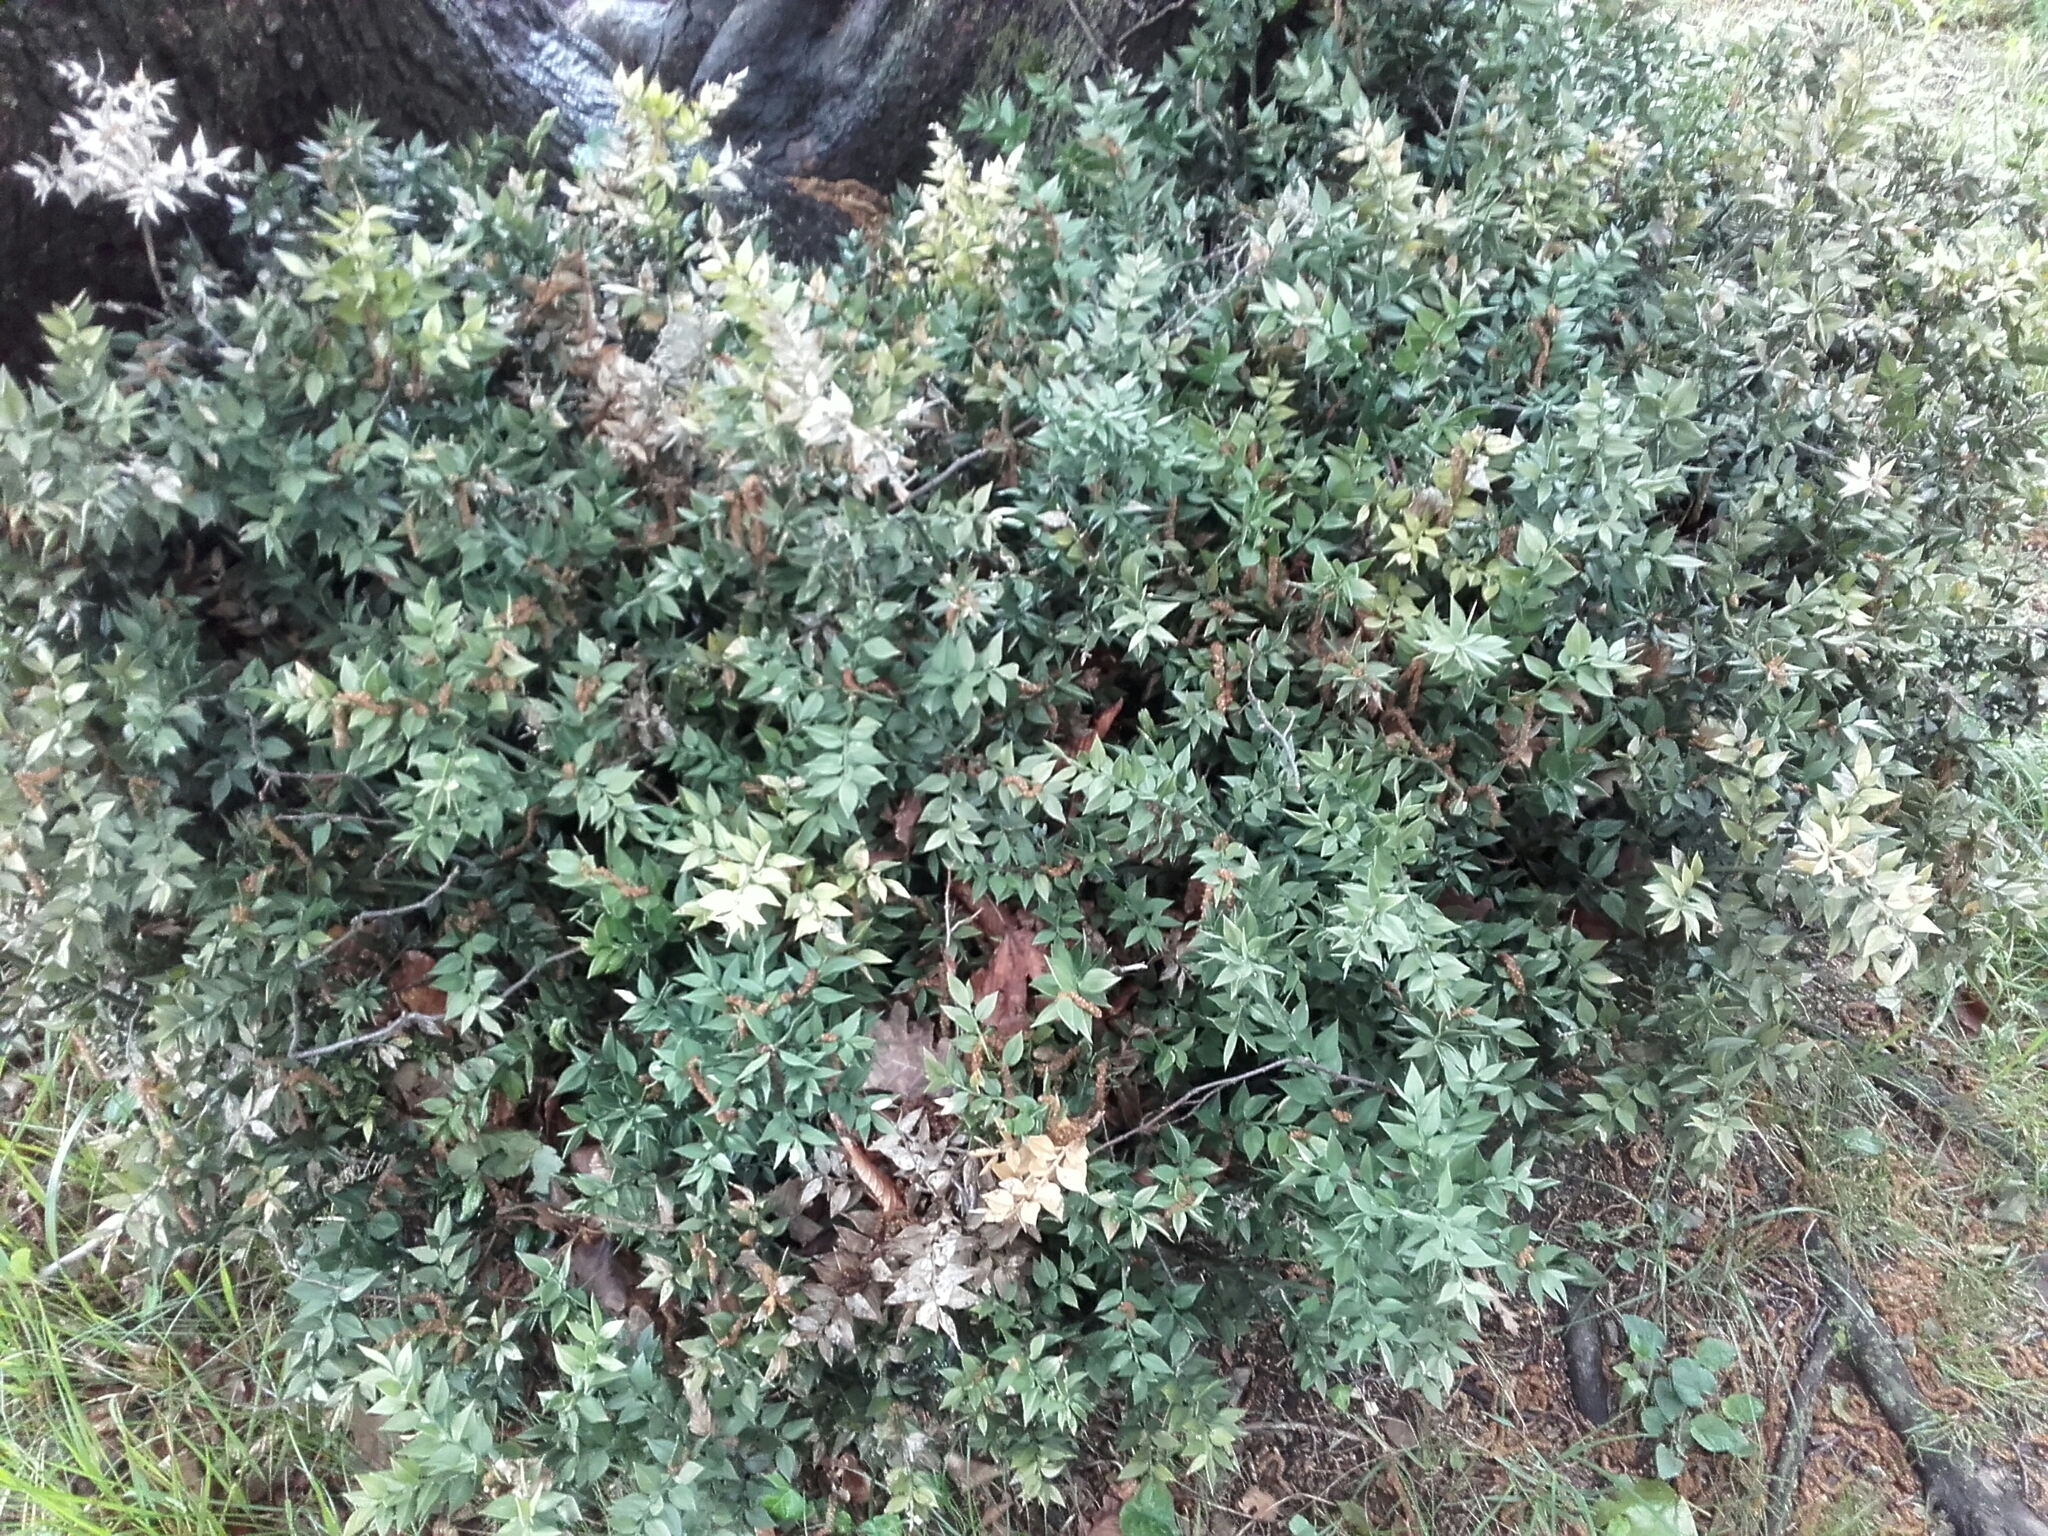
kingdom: Plantae
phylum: Tracheophyta
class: Liliopsida
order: Asparagales
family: Asparagaceae
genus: Ruscus
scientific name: Ruscus aculeatus
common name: Butcher's-broom
